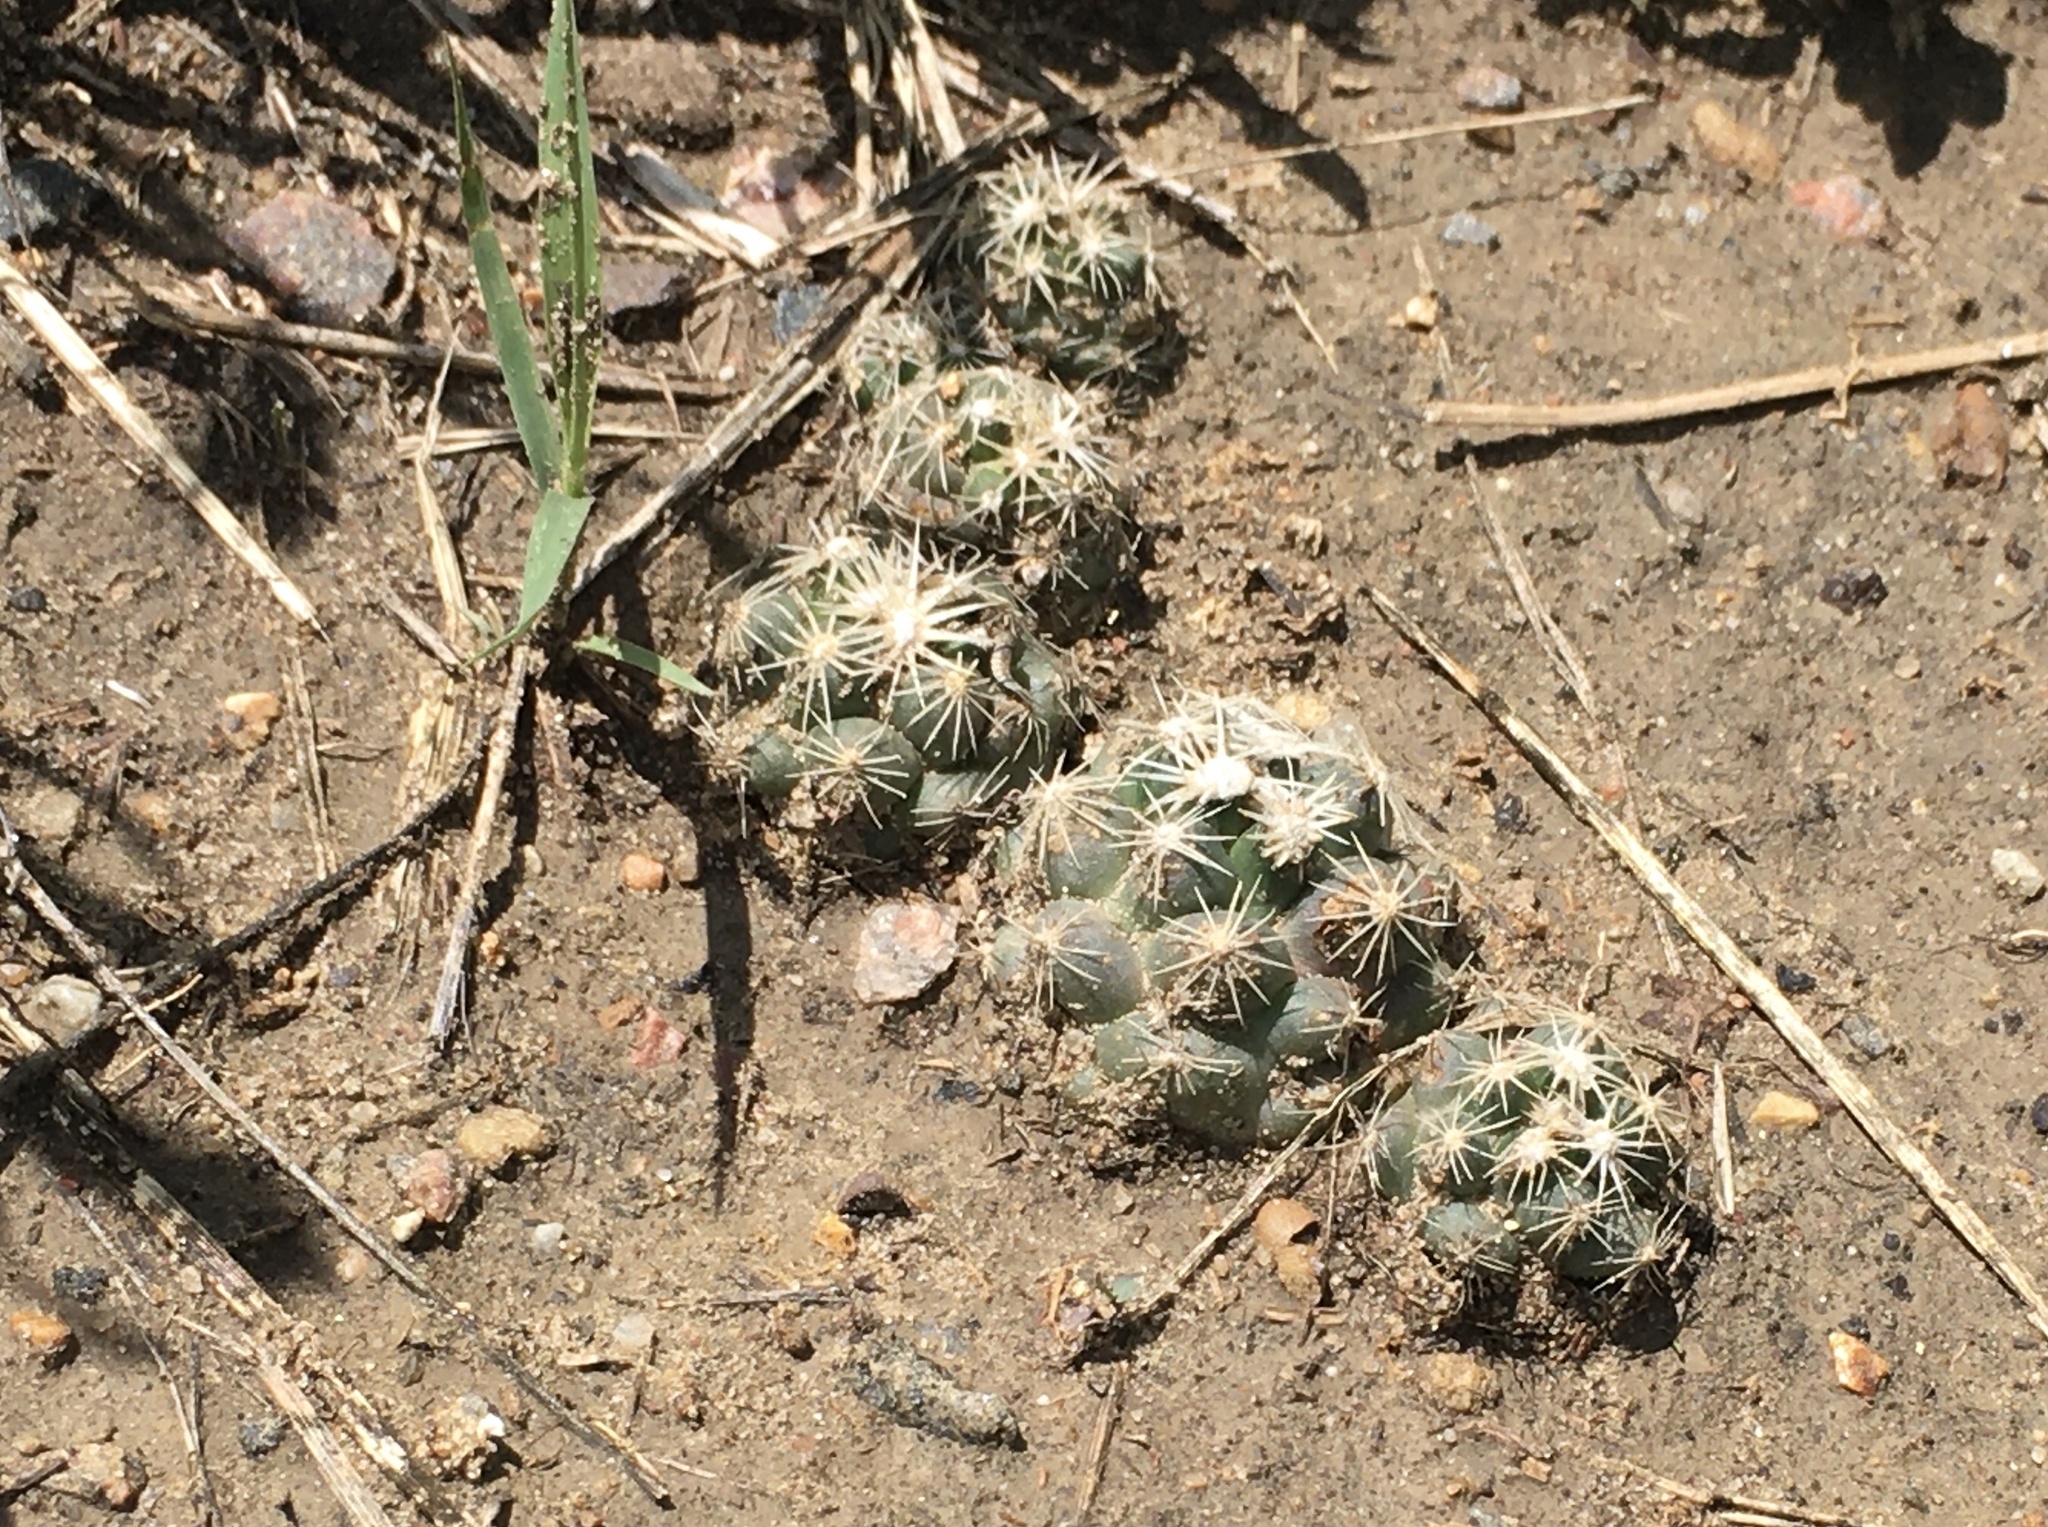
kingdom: Plantae
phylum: Tracheophyta
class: Magnoliopsida
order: Caryophyllales
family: Cactaceae
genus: Pelecyphora
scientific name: Pelecyphora missouriensis
